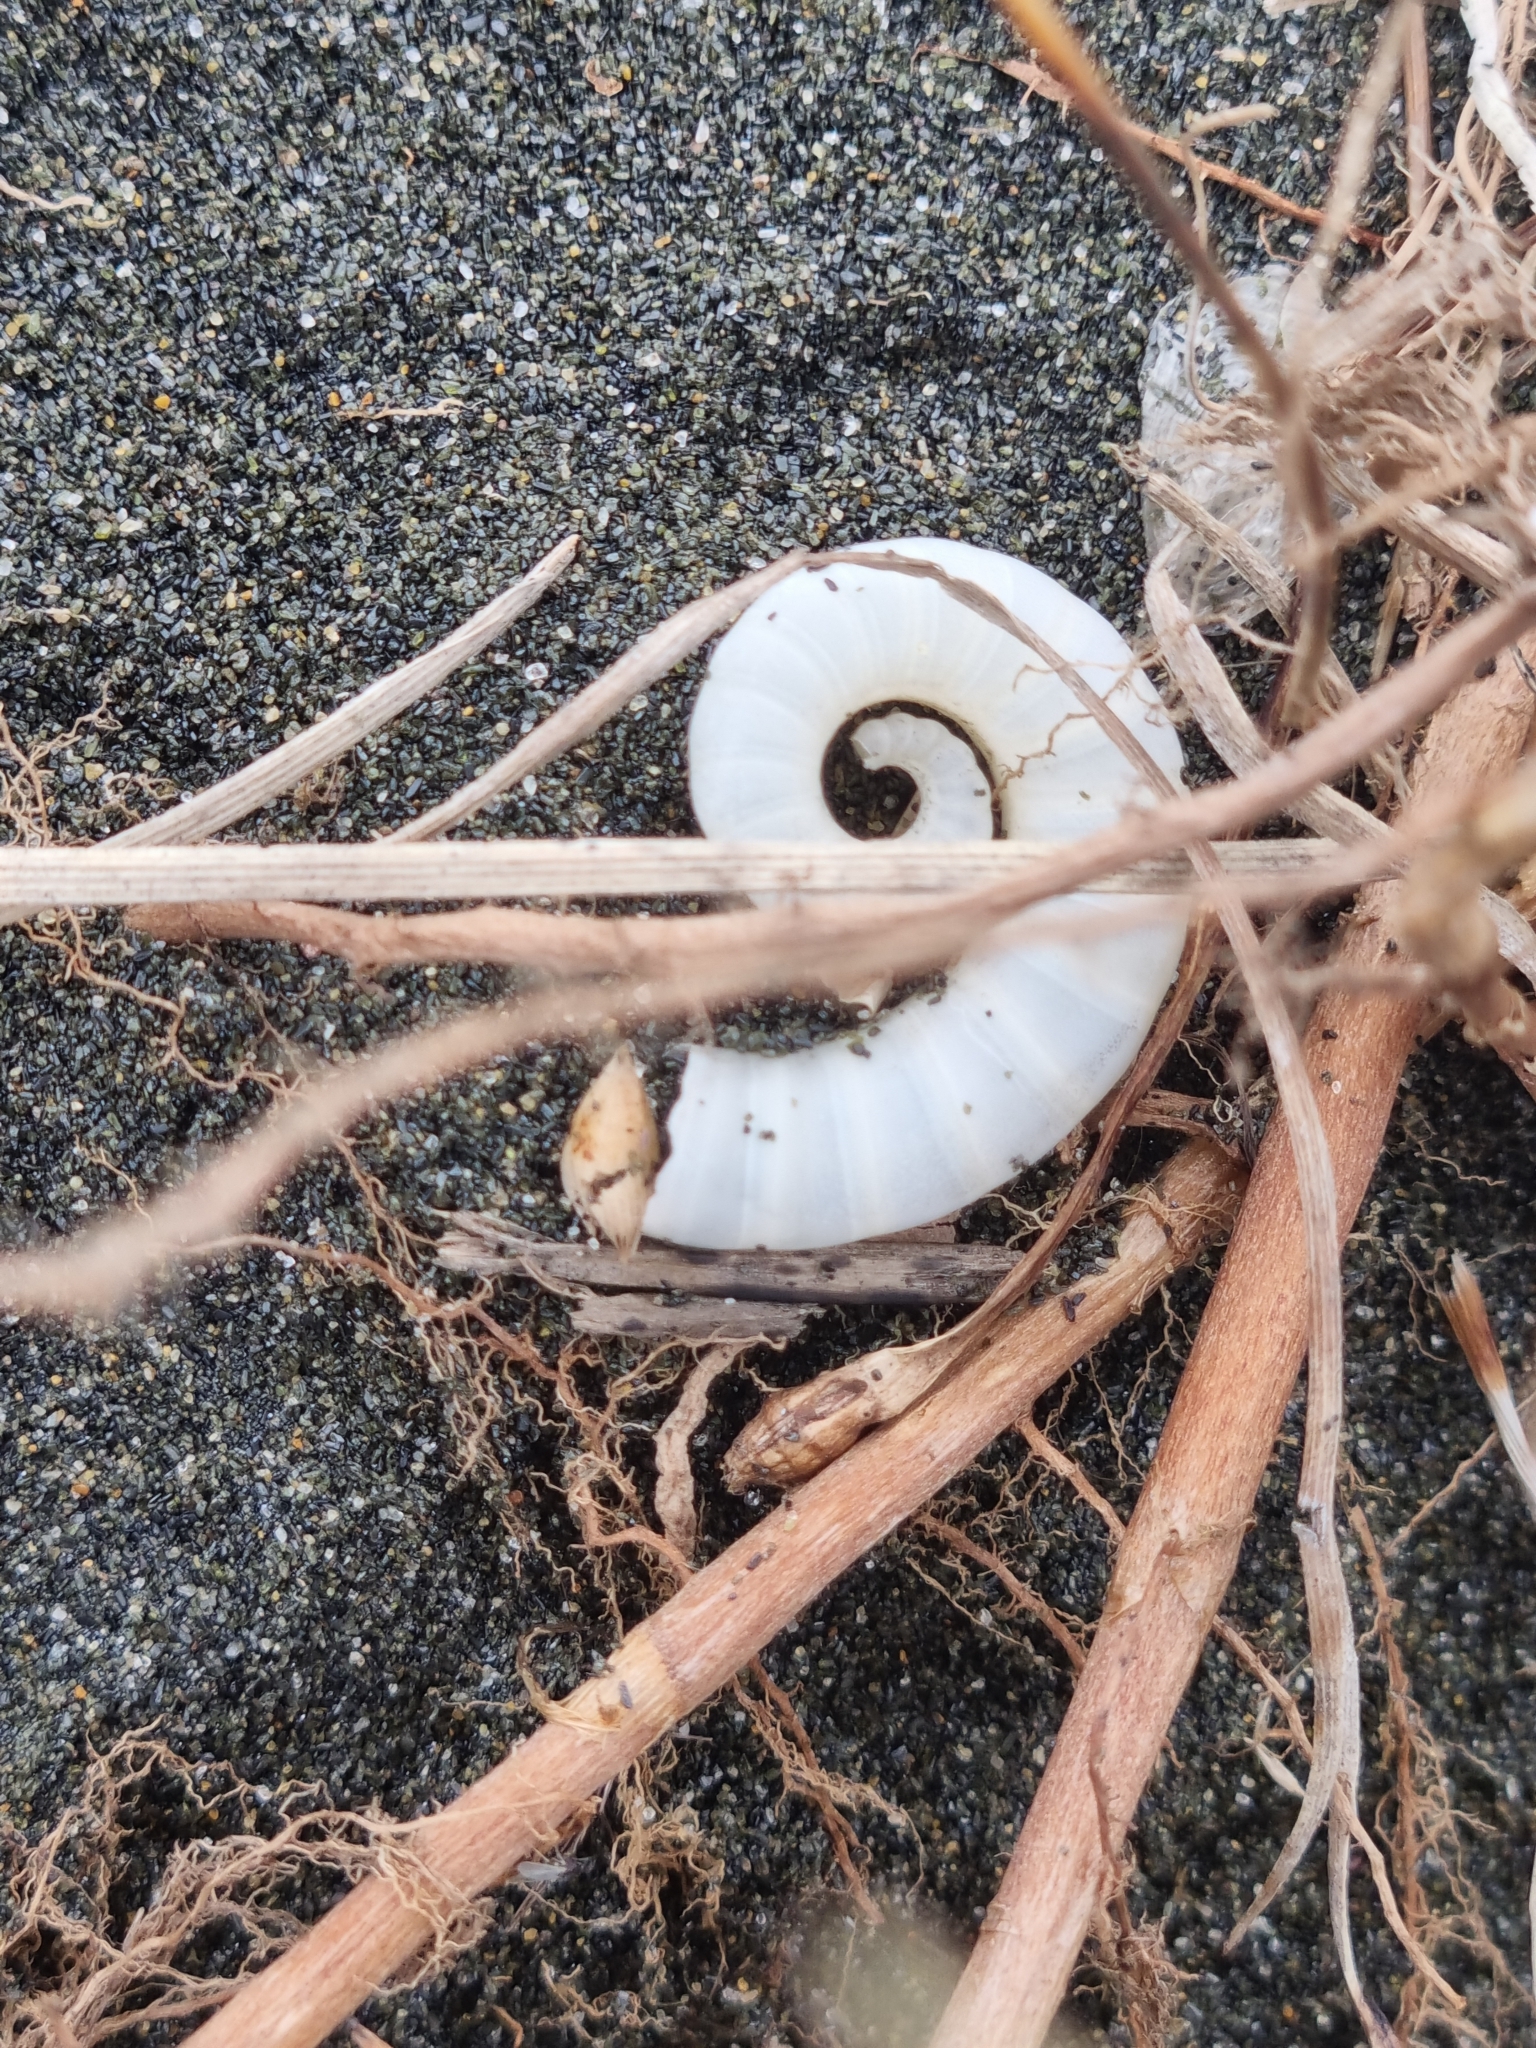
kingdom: Animalia
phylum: Mollusca
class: Cephalopoda
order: Spirulida
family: Spirulidae
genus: Spirula
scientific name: Spirula spirula
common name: Ram's horn squid
